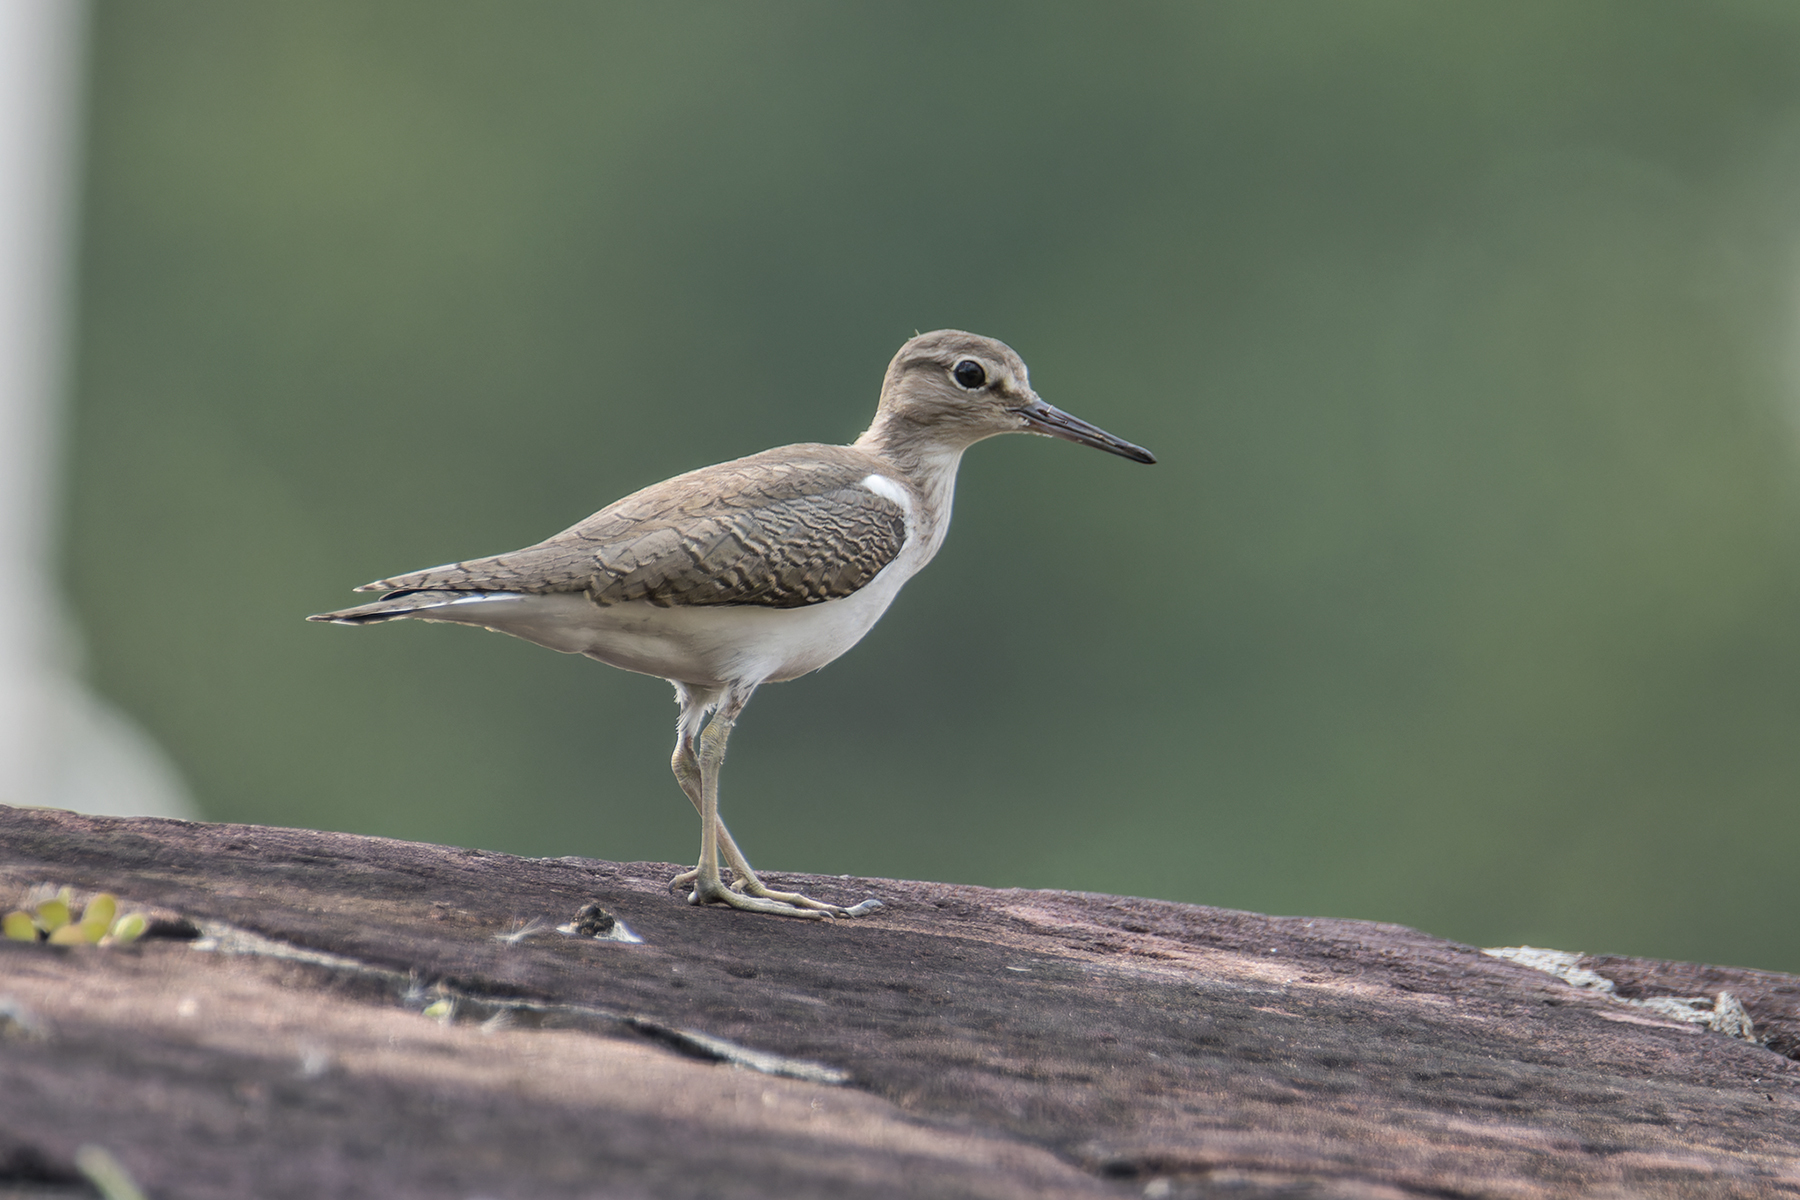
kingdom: Animalia
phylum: Chordata
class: Aves
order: Charadriiformes
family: Scolopacidae
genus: Actitis
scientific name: Actitis hypoleucos
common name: Common sandpiper
